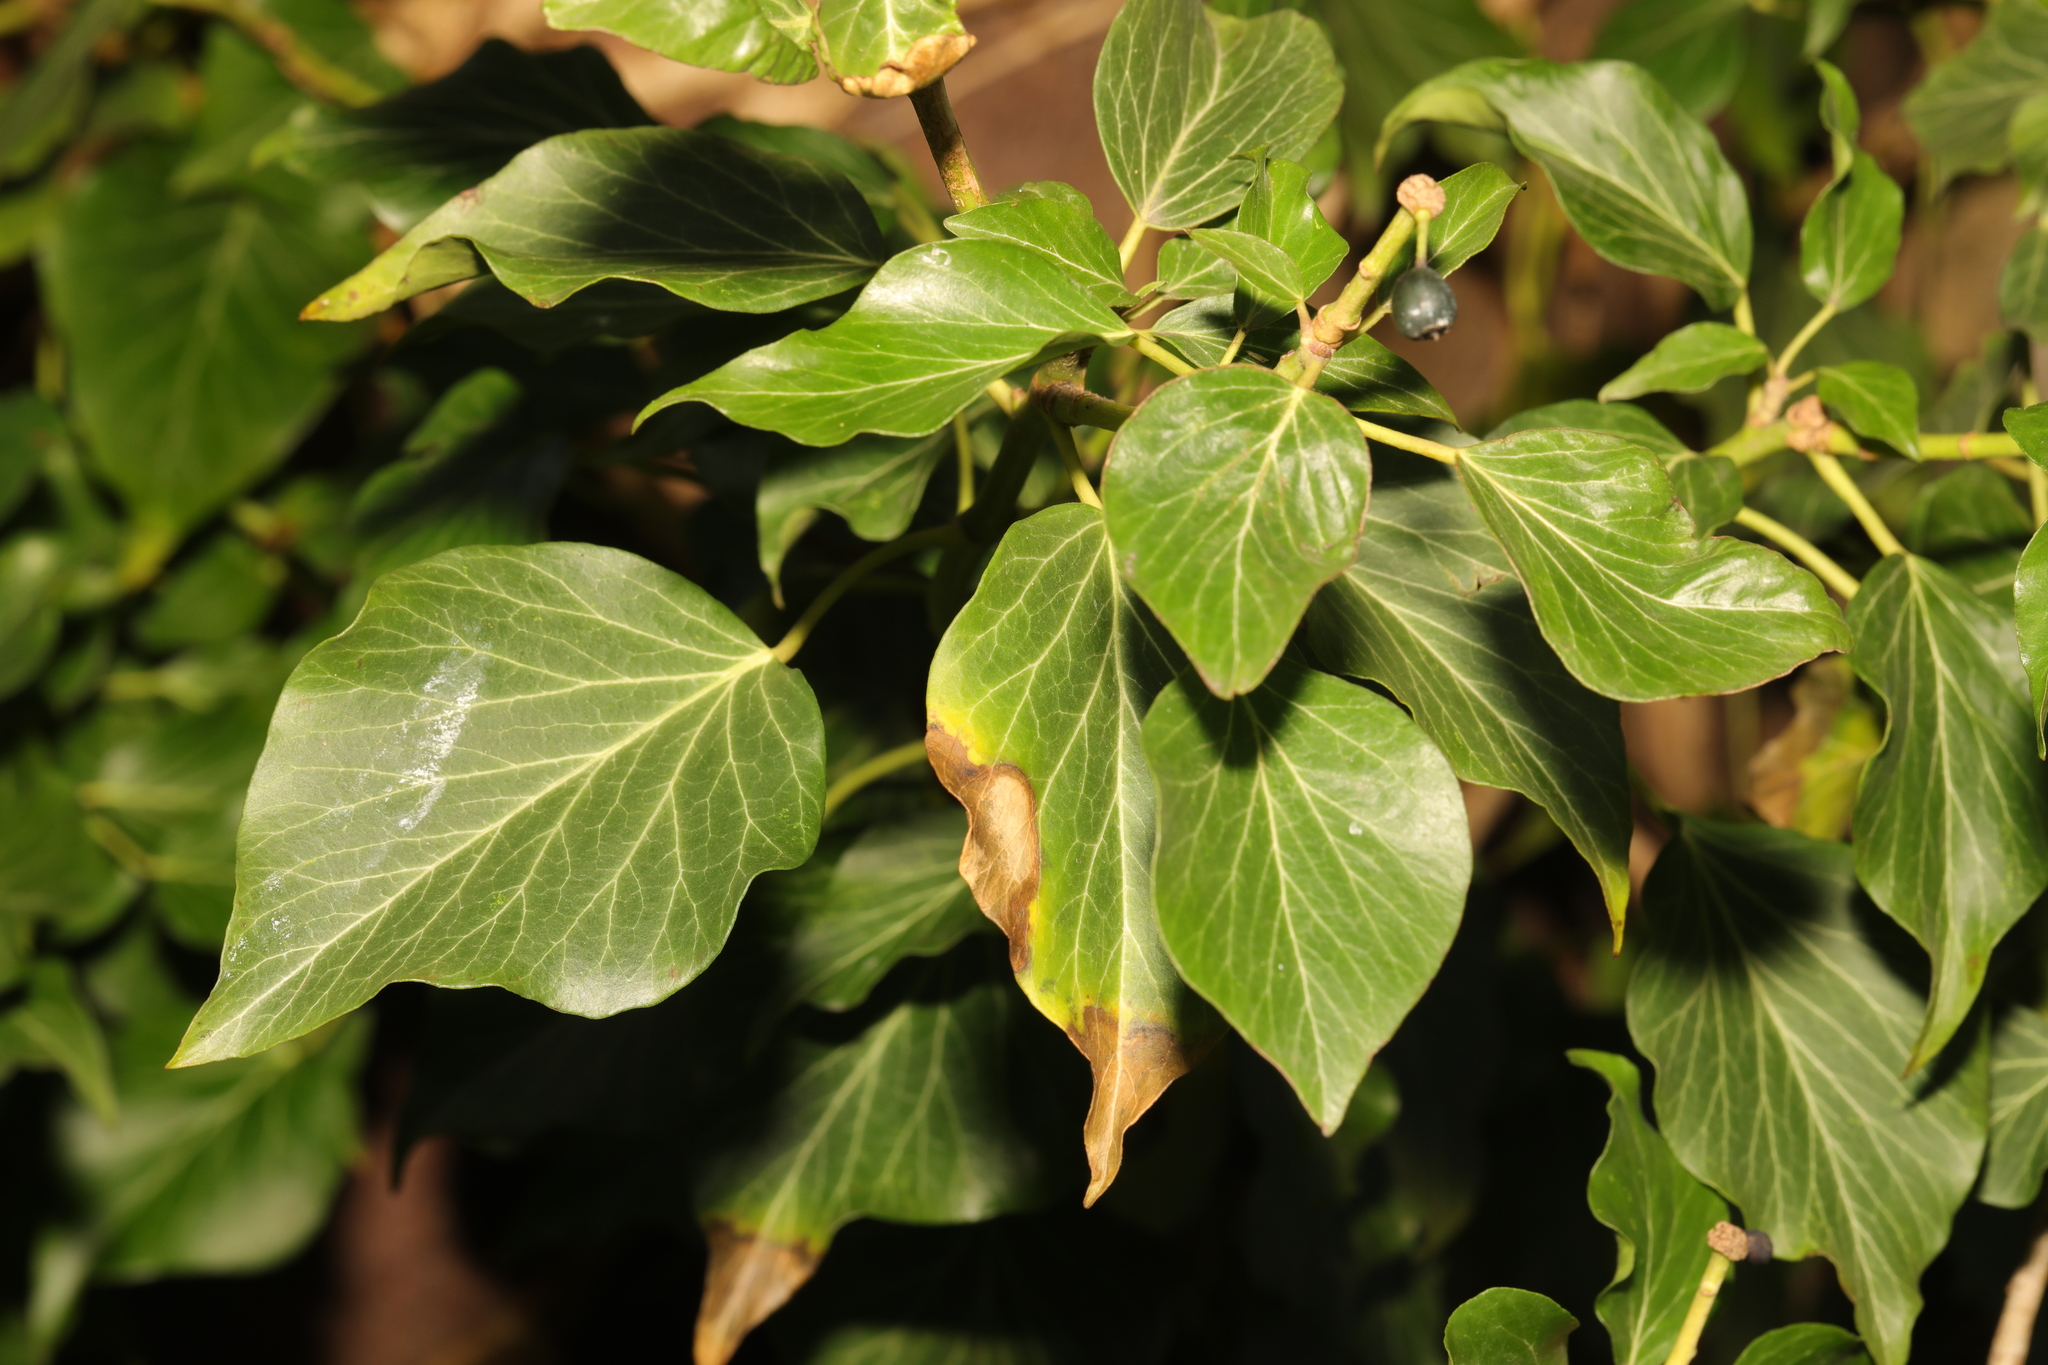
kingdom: Plantae
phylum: Tracheophyta
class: Magnoliopsida
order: Apiales
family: Araliaceae
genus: Hedera
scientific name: Hedera helix
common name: Ivy
